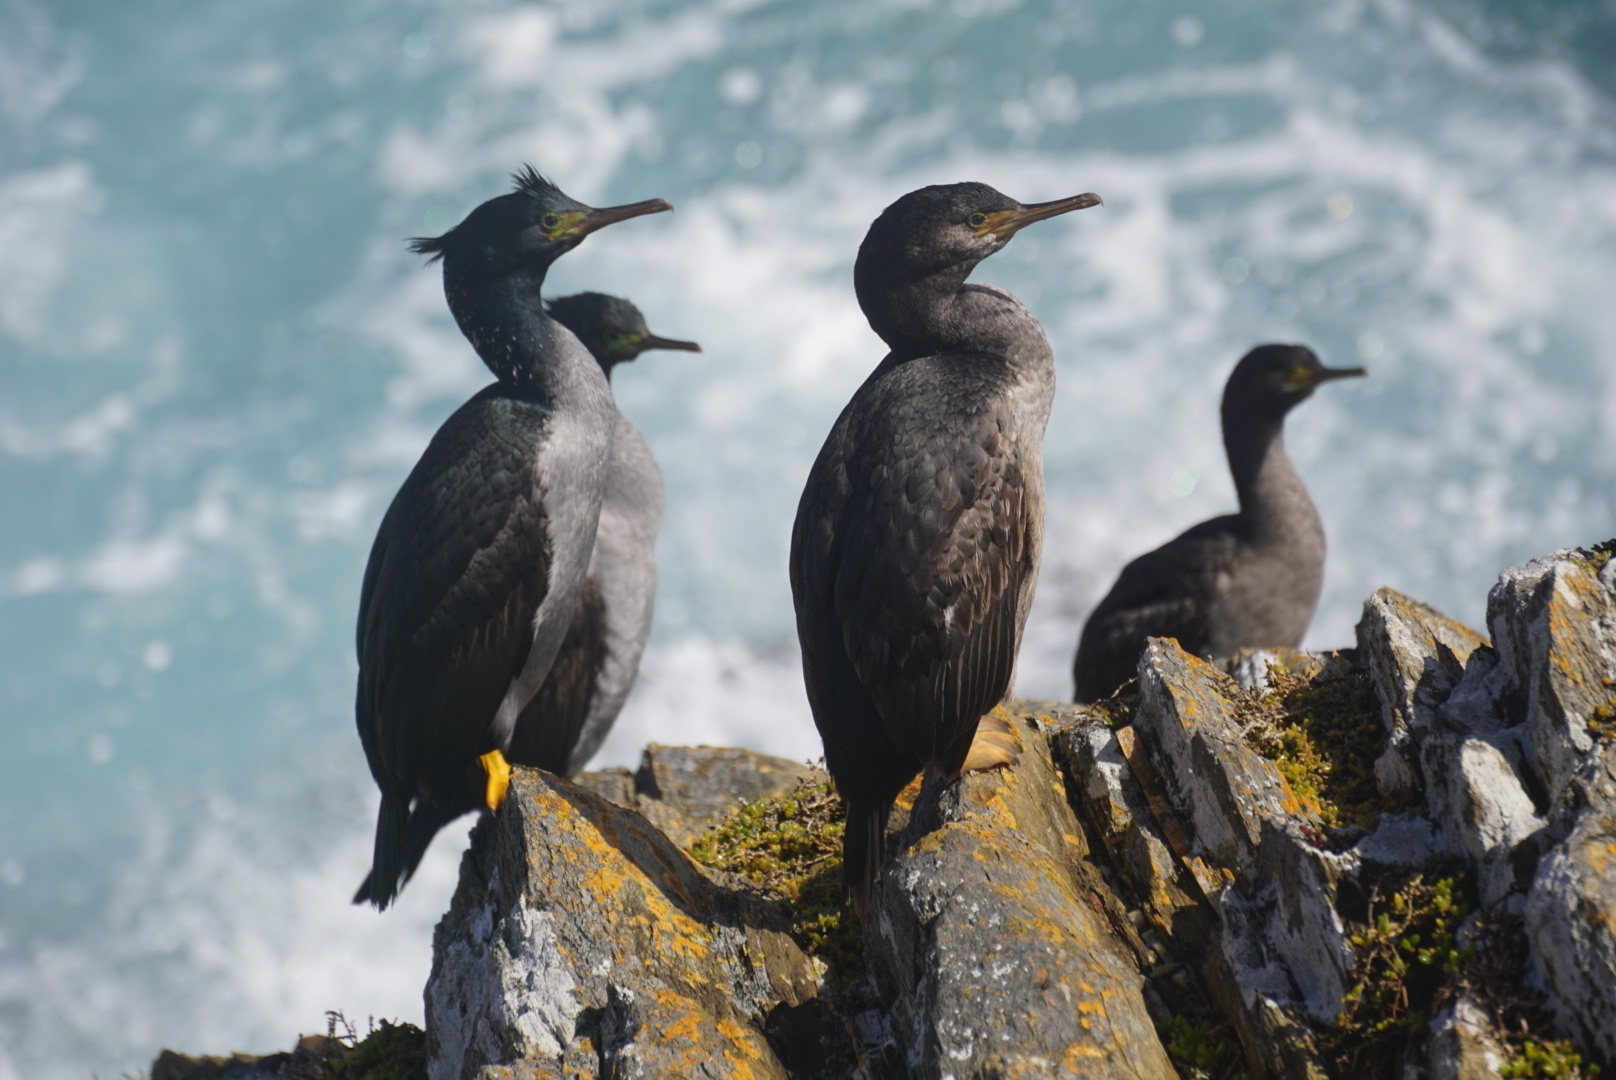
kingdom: Animalia
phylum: Chordata
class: Aves
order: Suliformes
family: Phalacrocoracidae
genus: Phalacrocorax
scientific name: Phalacrocorax featherstoni
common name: Pitt shag
